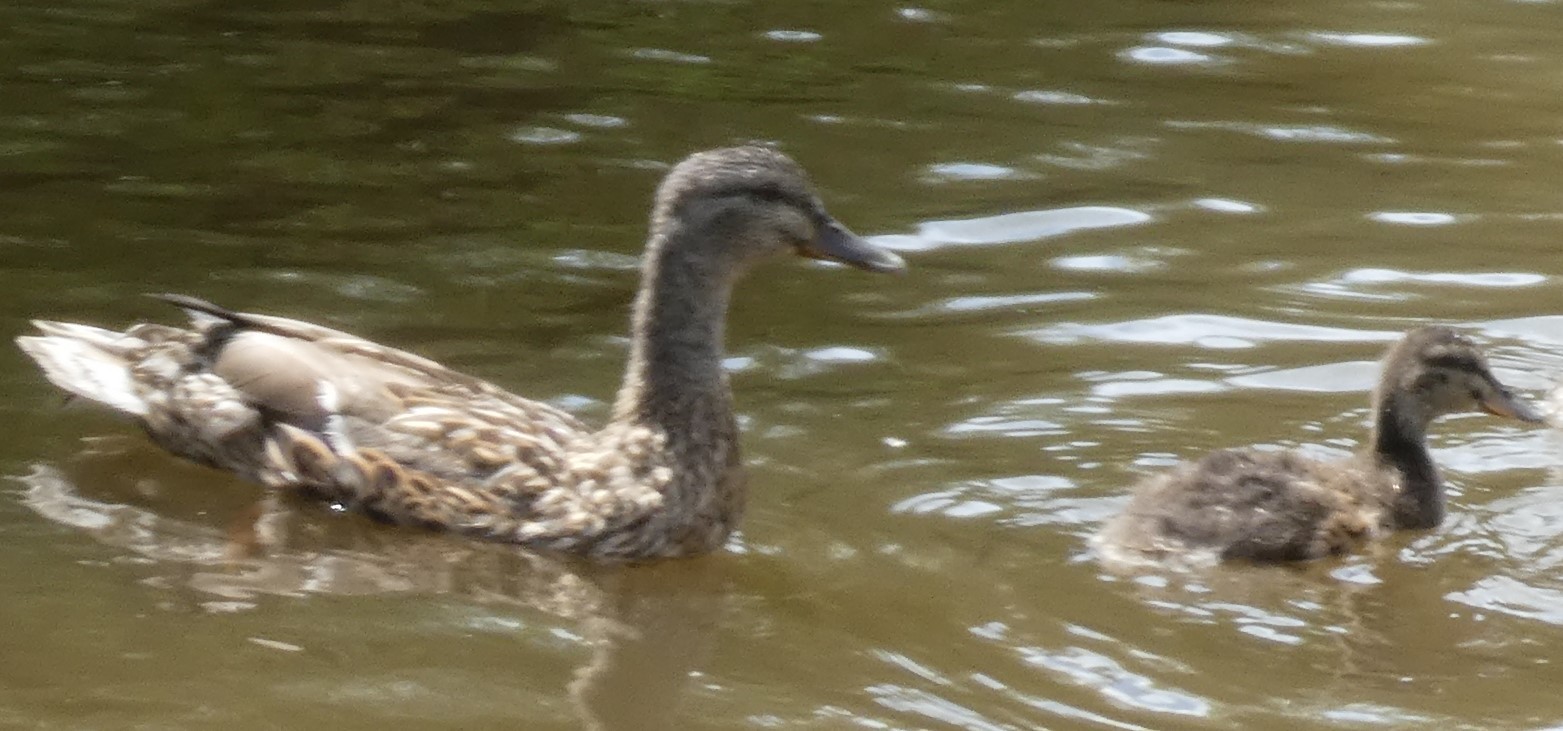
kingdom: Animalia
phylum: Chordata
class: Aves
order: Anseriformes
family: Anatidae
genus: Anas
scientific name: Anas platyrhynchos
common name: Mallard
